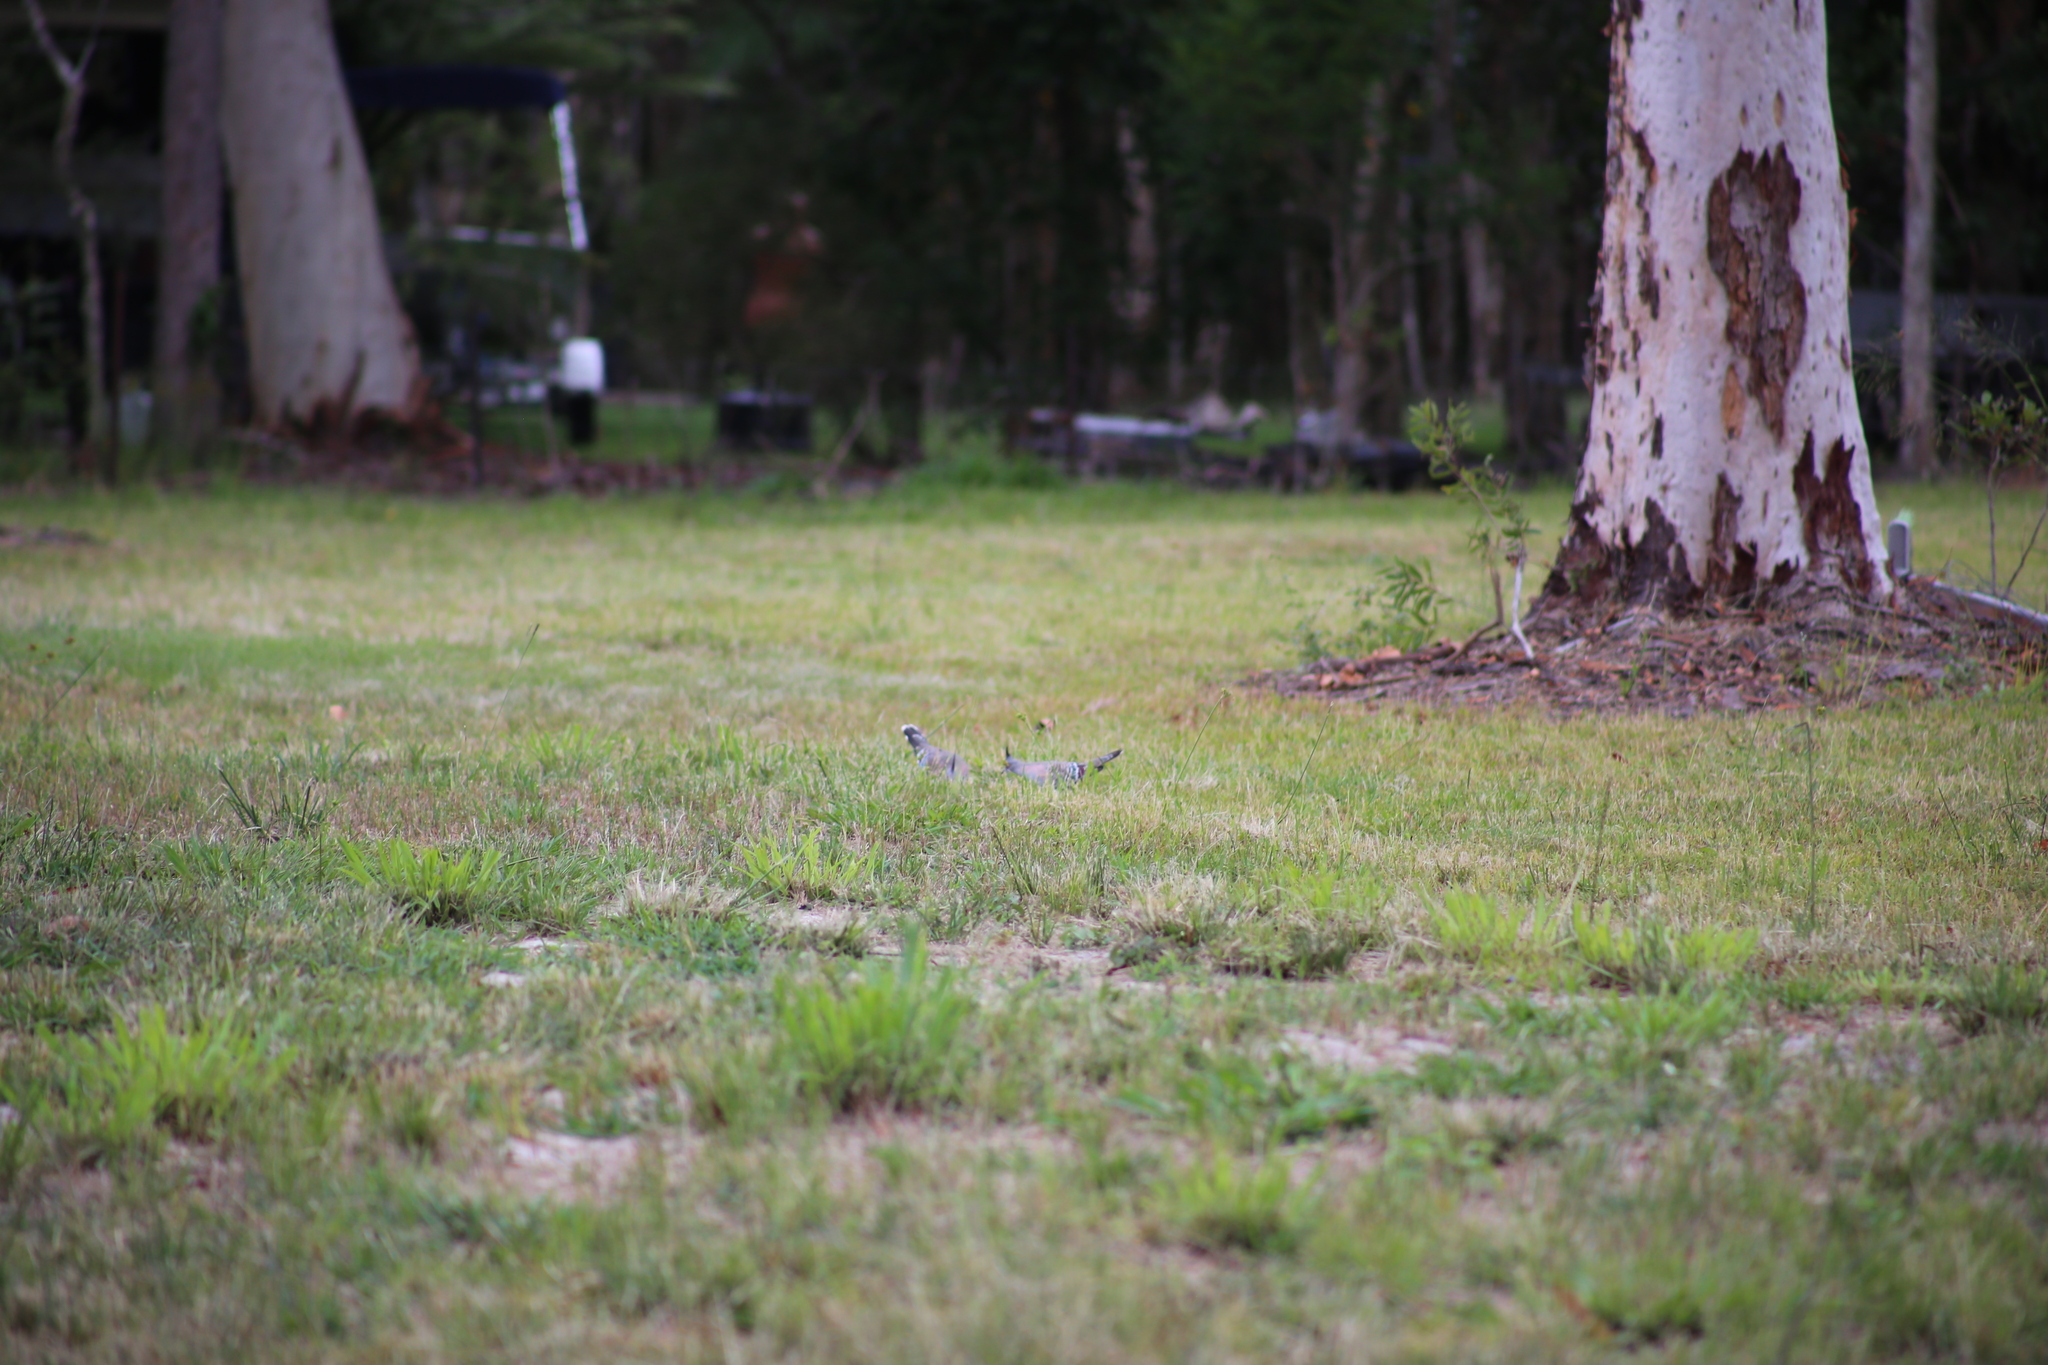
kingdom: Animalia
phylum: Chordata
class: Aves
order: Columbiformes
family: Columbidae
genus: Ocyphaps
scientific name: Ocyphaps lophotes
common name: Crested pigeon
